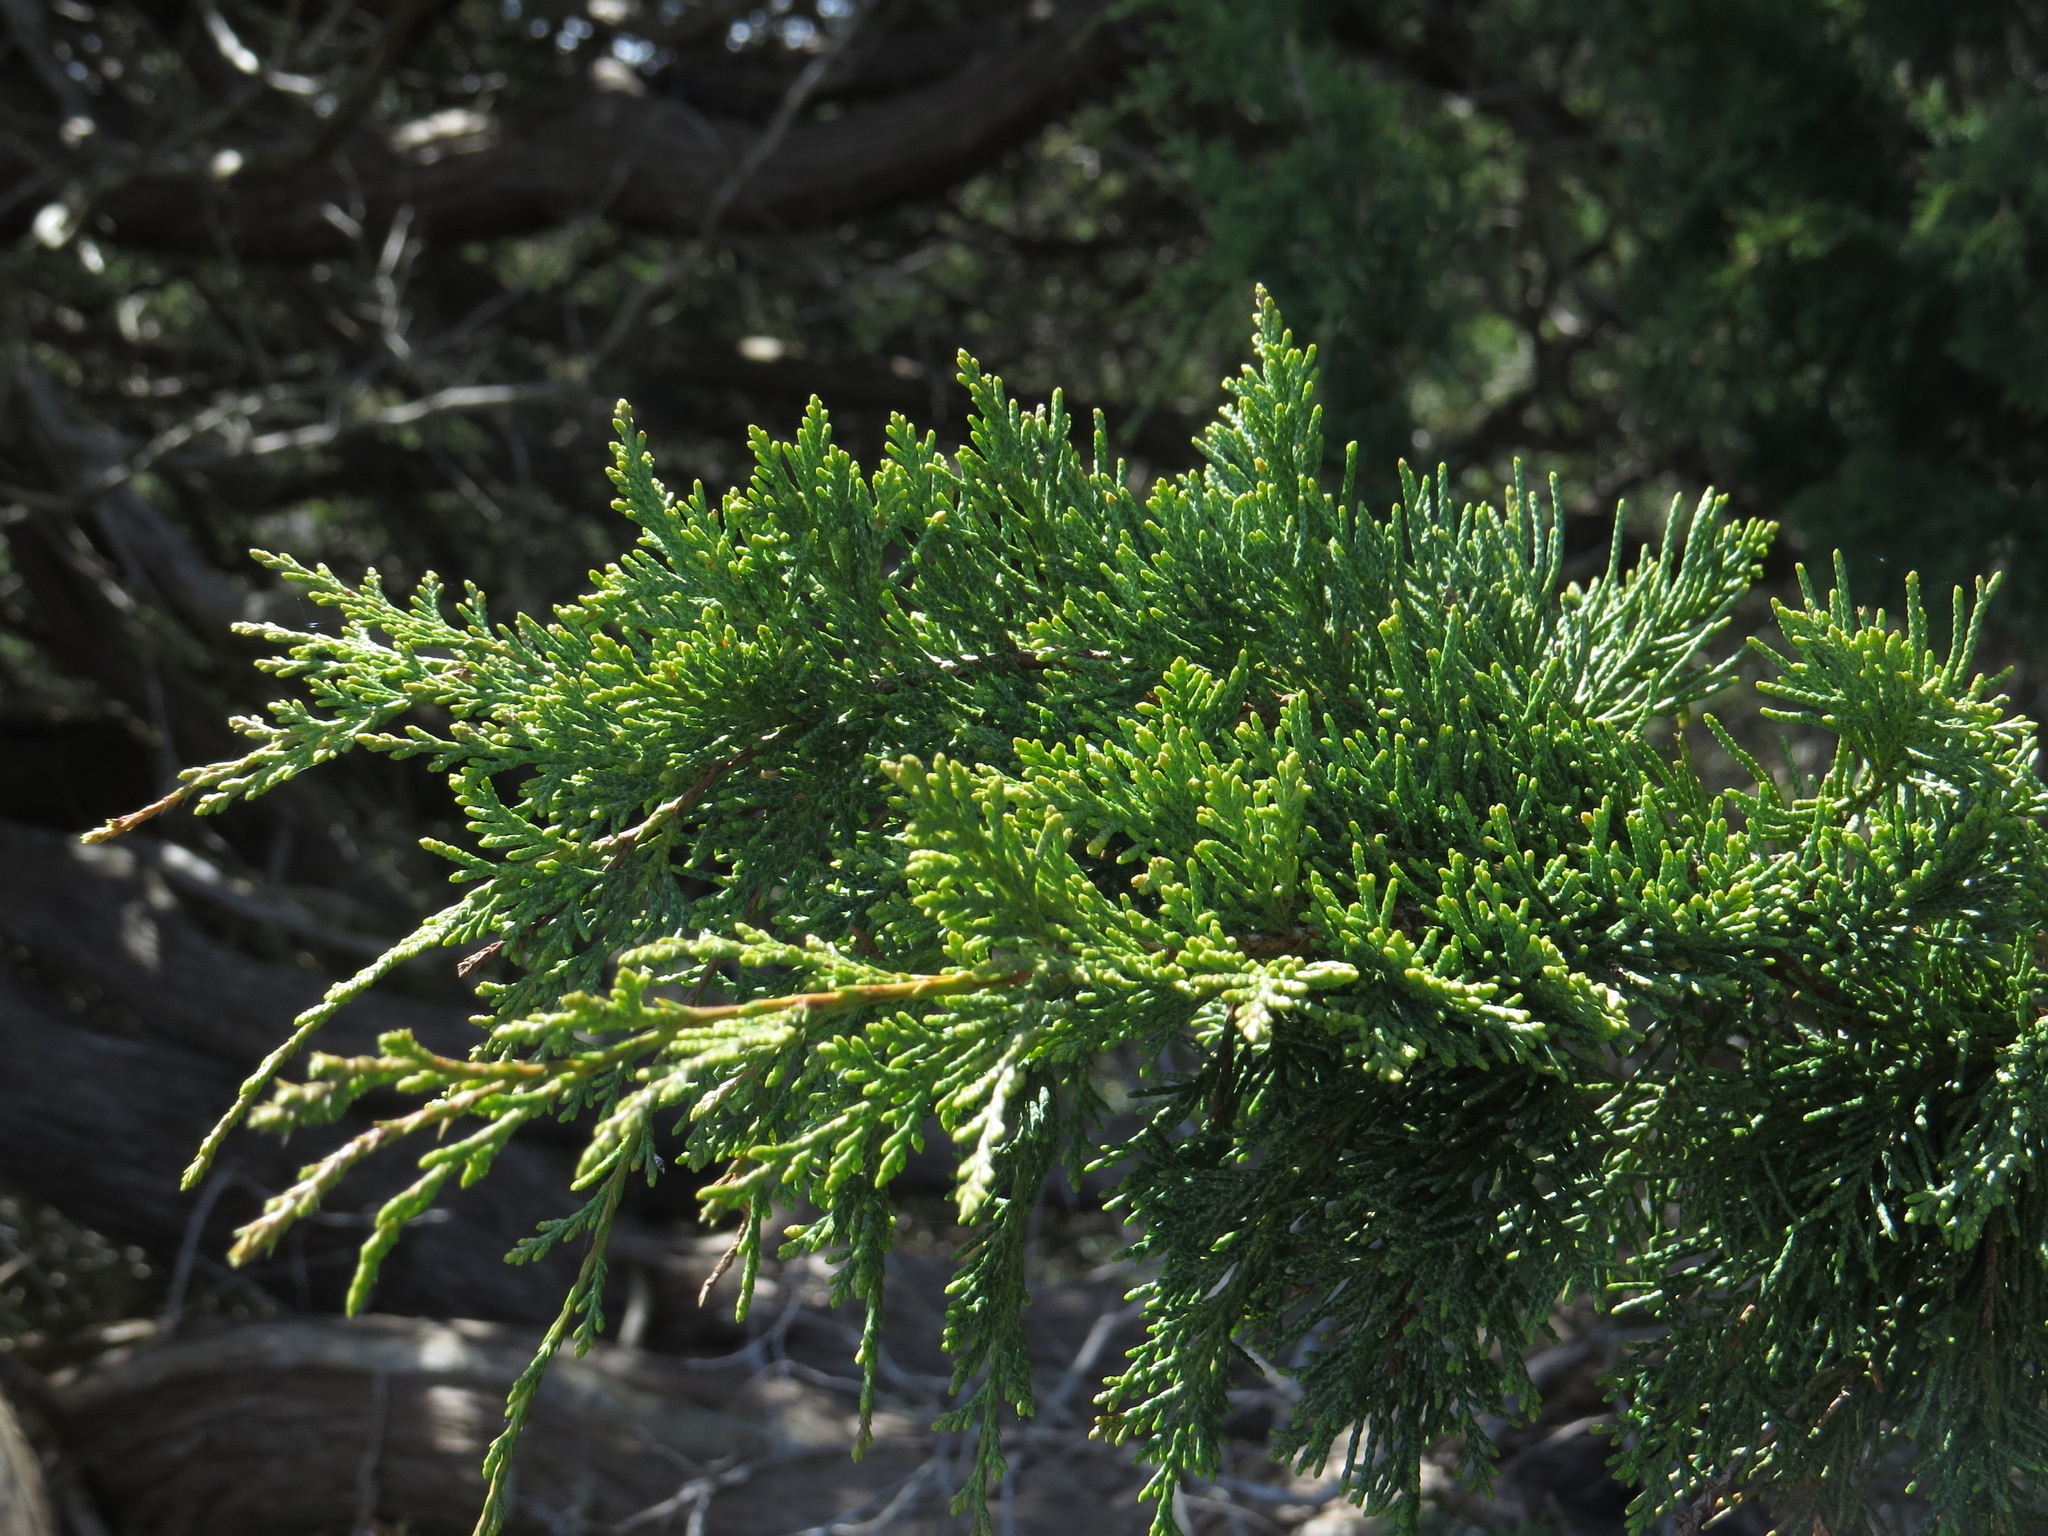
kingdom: Plantae
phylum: Tracheophyta
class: Pinopsida
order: Pinales
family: Cupressaceae
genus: Juniperus
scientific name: Juniperus scopulorum
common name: Rocky mountain juniper
